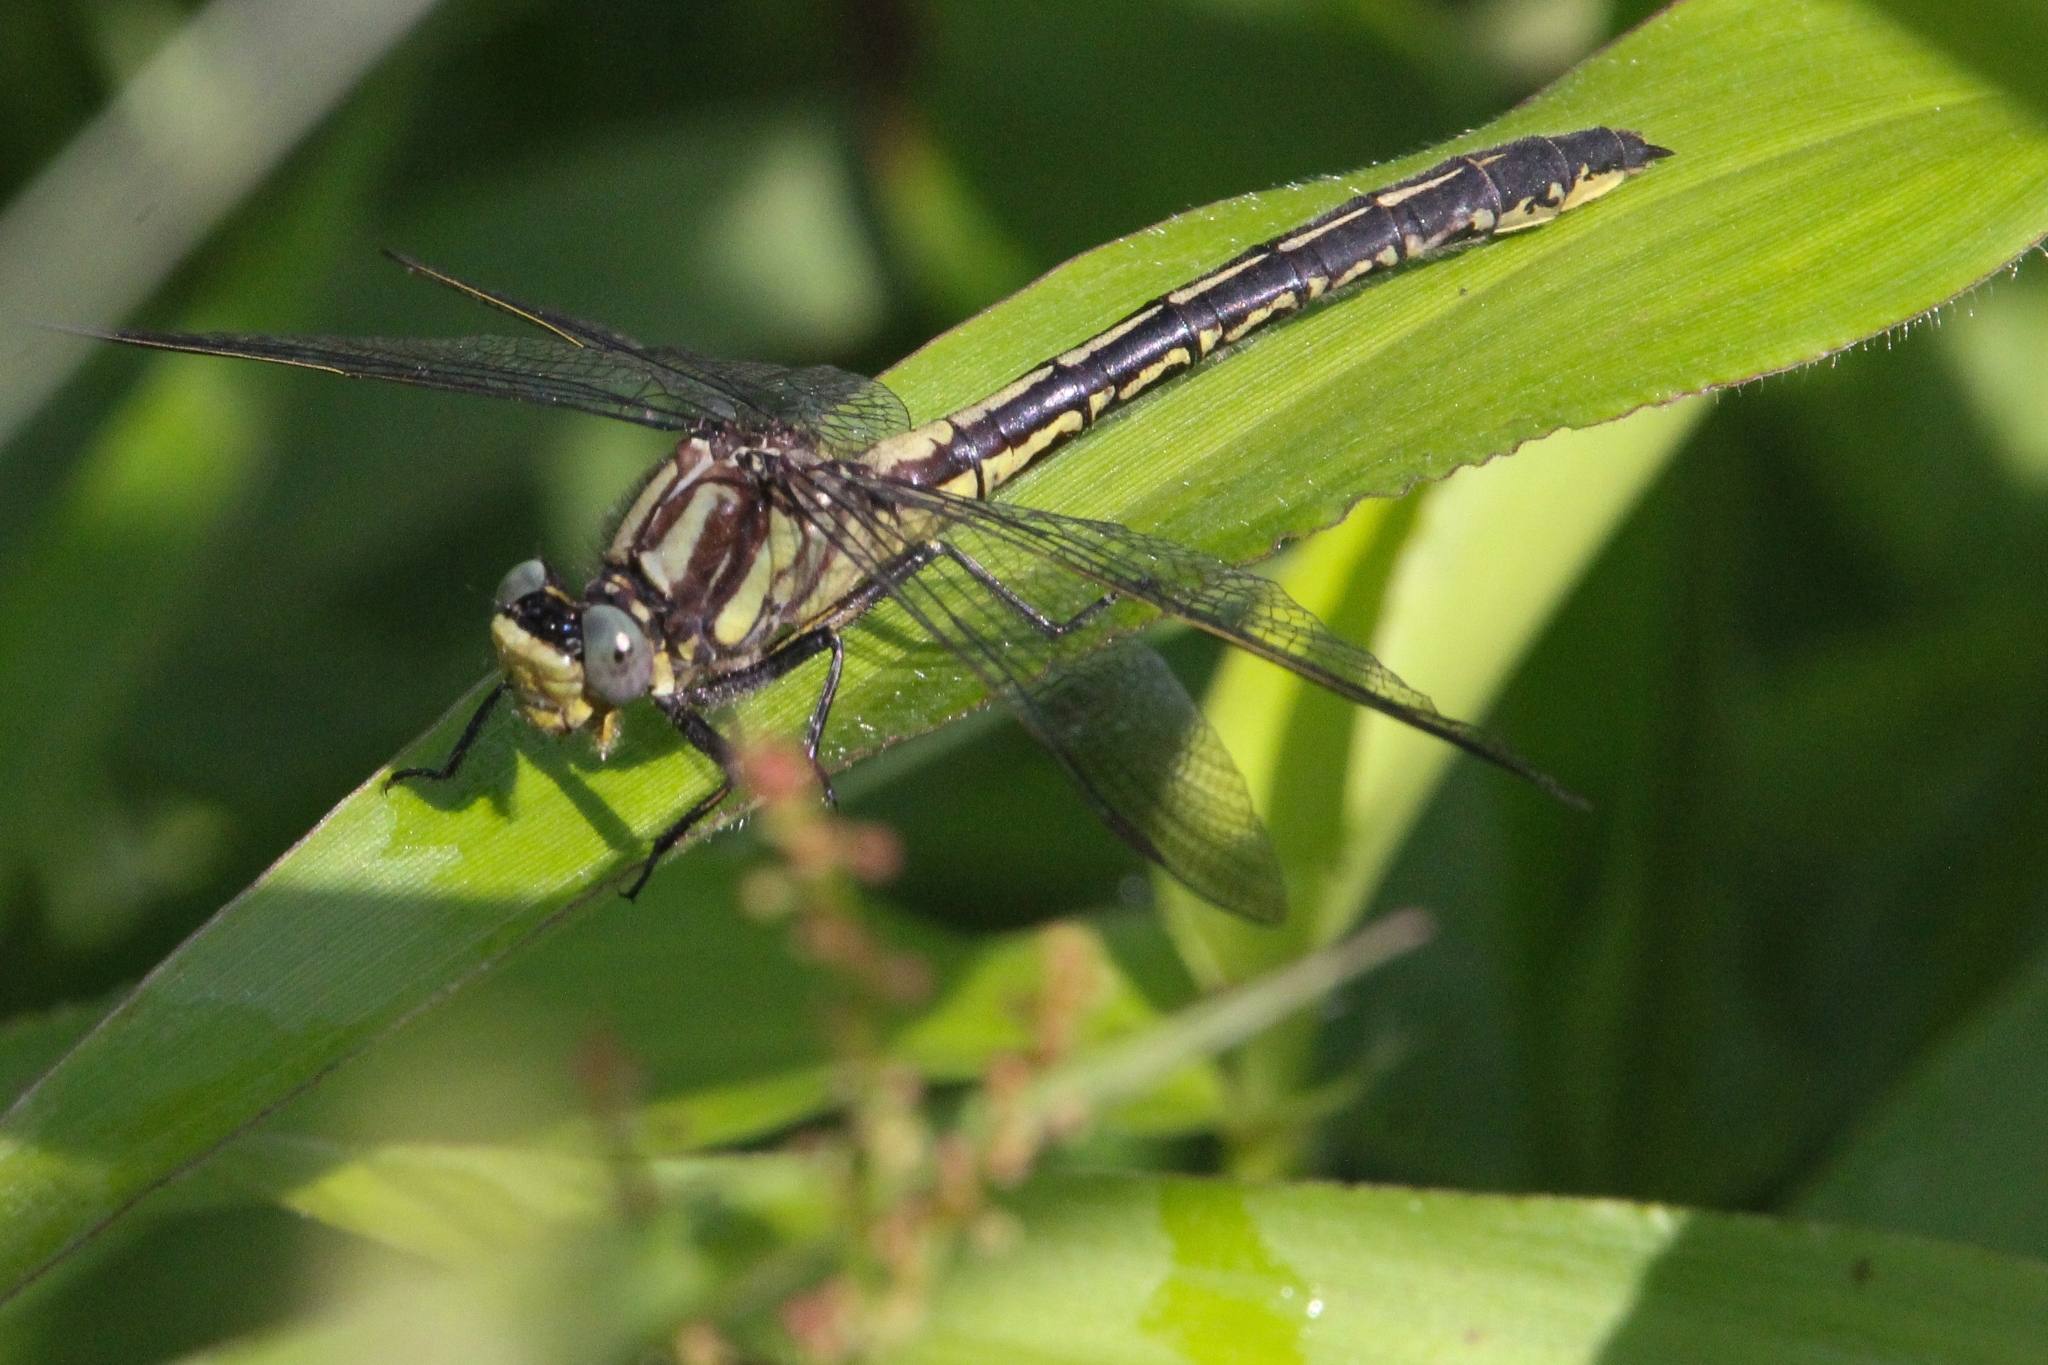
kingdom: Animalia
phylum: Arthropoda
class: Insecta
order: Odonata
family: Gomphidae
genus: Phanogomphus
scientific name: Phanogomphus descriptus
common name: Harpoon clubtail
